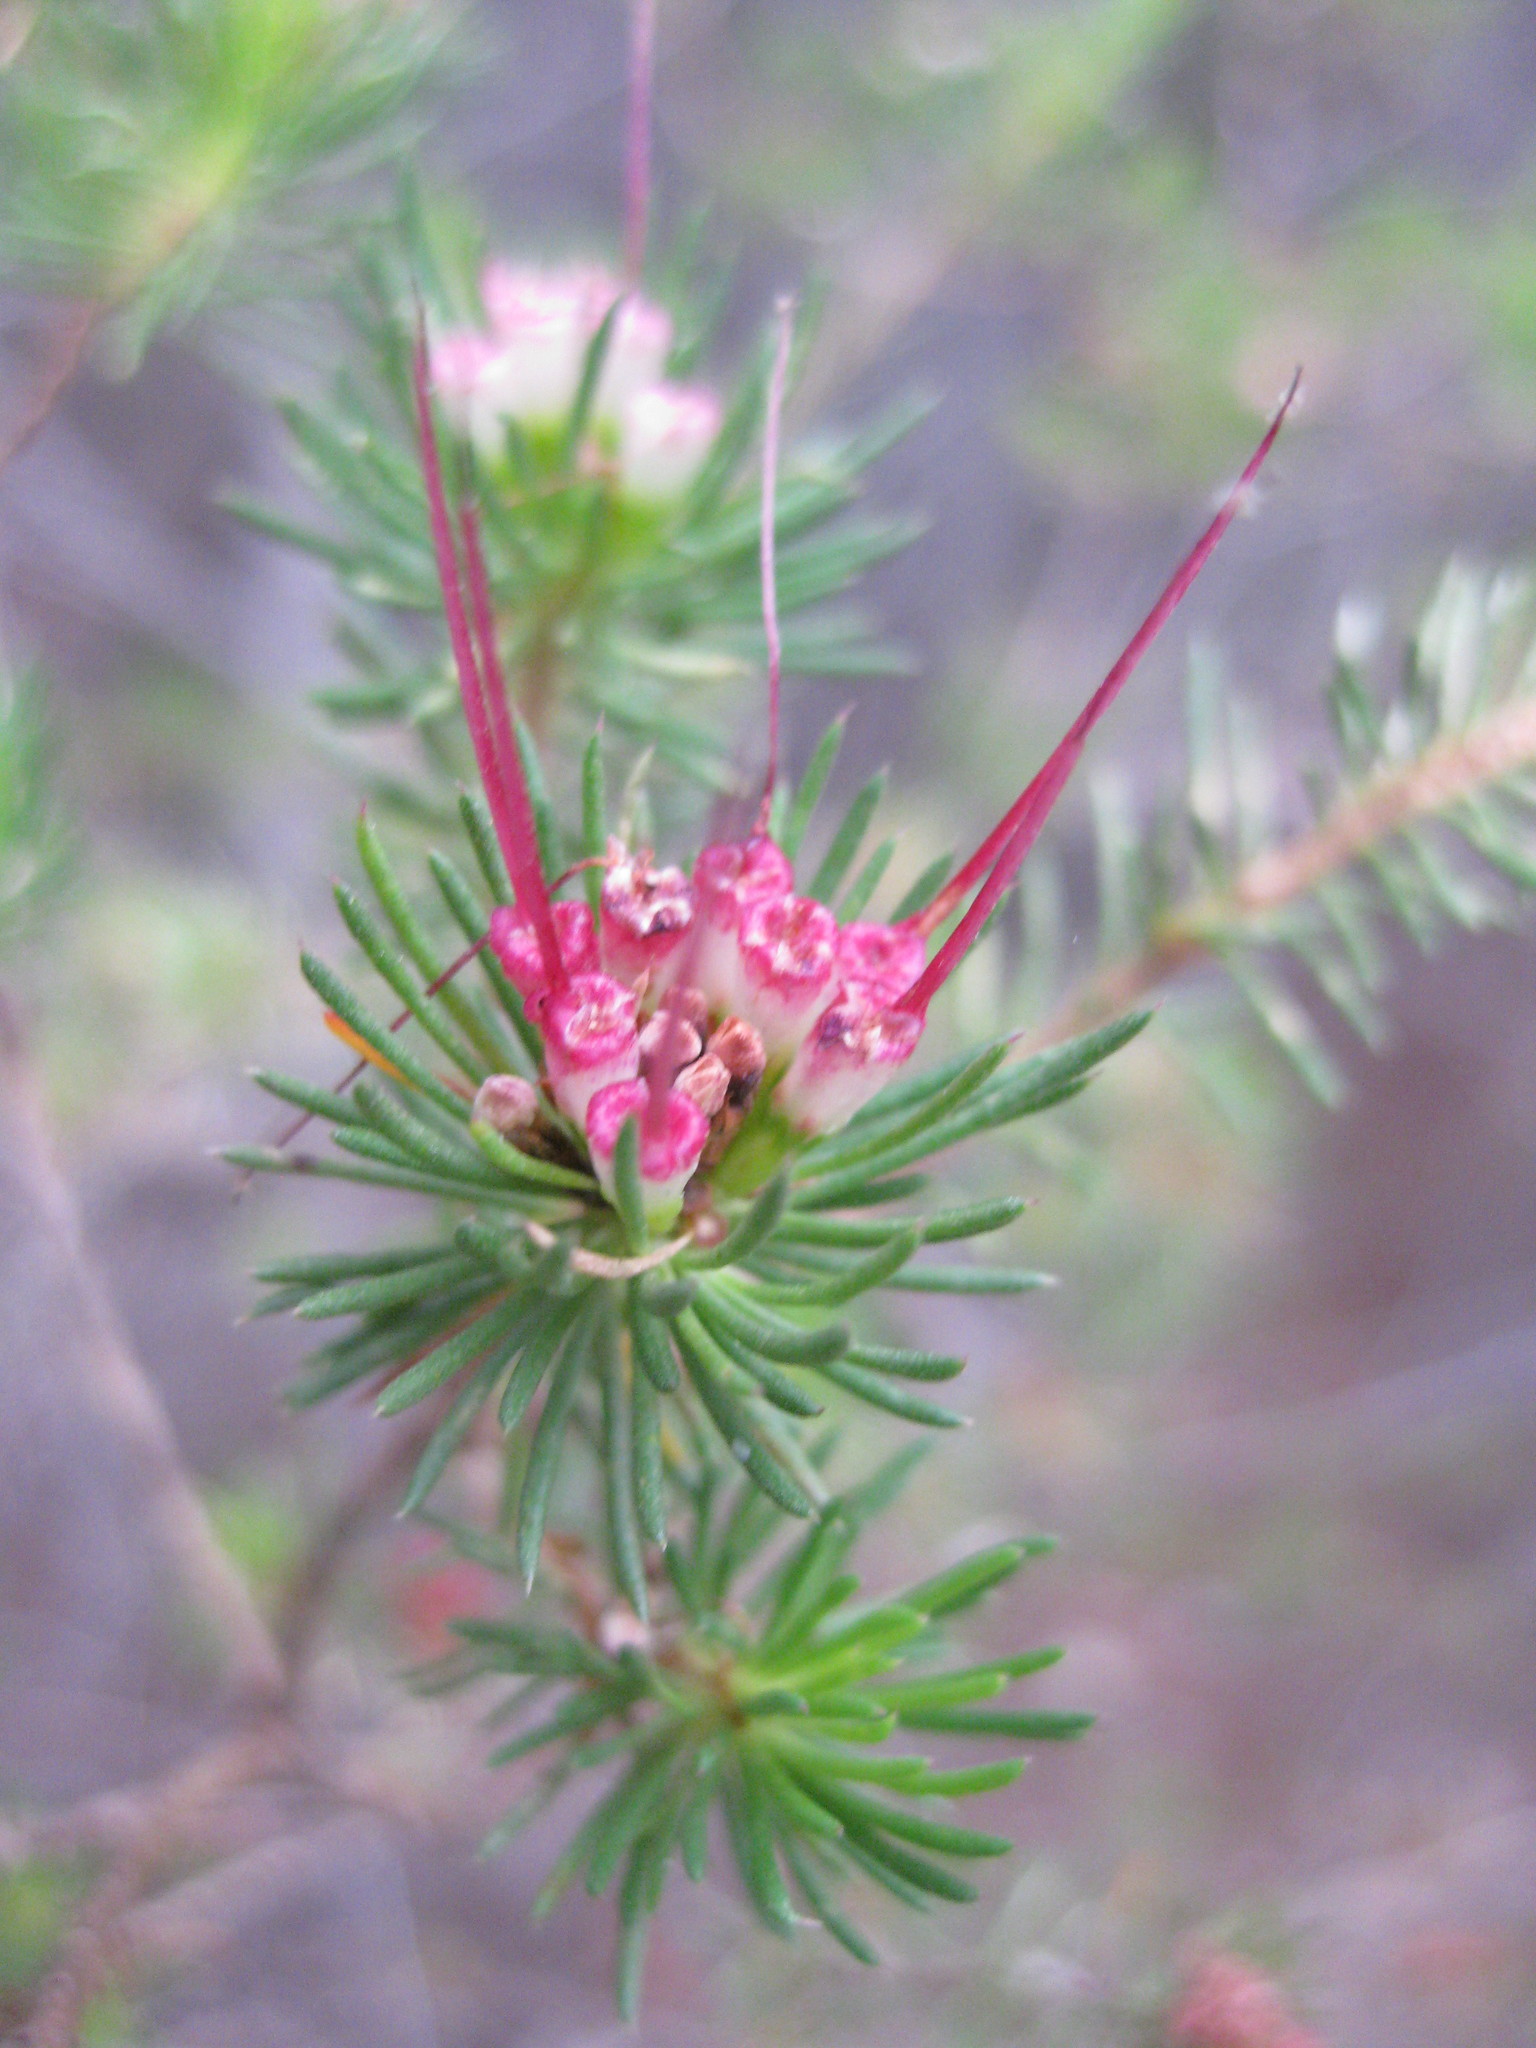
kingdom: Plantae
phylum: Tracheophyta
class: Magnoliopsida
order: Myrtales
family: Myrtaceae
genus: Darwinia
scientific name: Darwinia fascicularis
